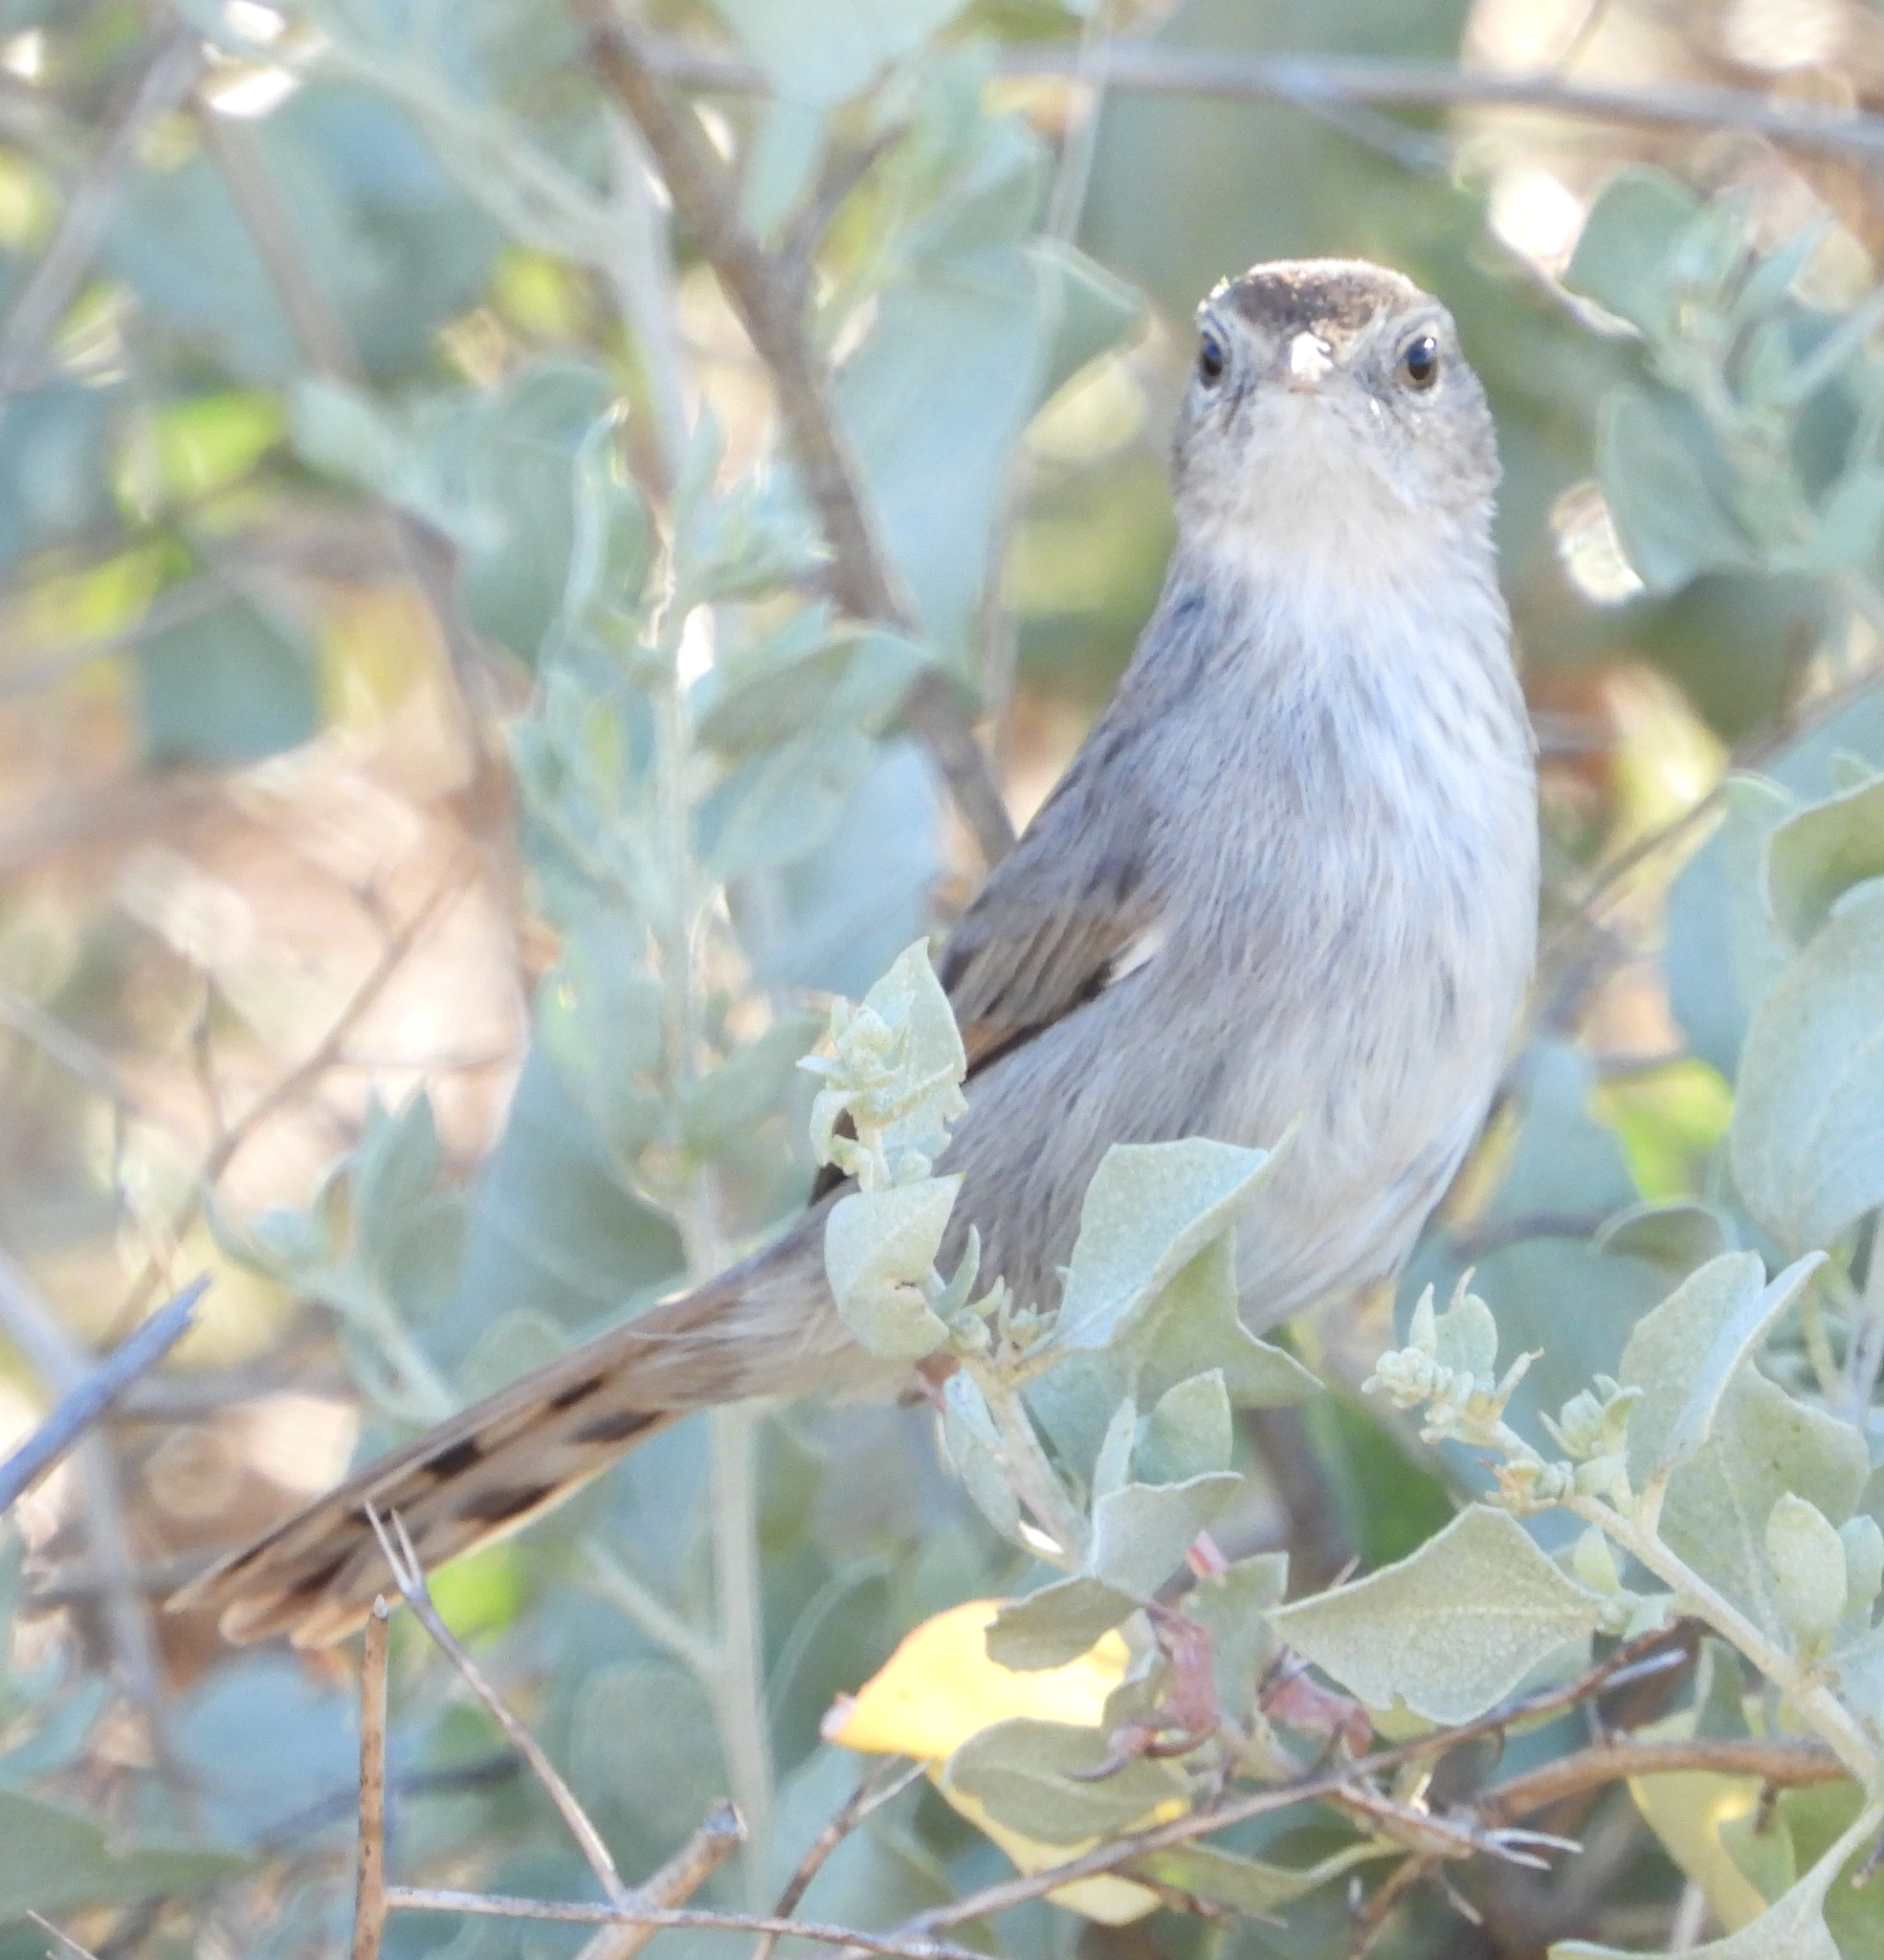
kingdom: Animalia
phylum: Chordata
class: Aves
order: Passeriformes
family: Cisticolidae
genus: Cisticola
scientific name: Cisticola subruficapilla
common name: Grey-backed cisticola
